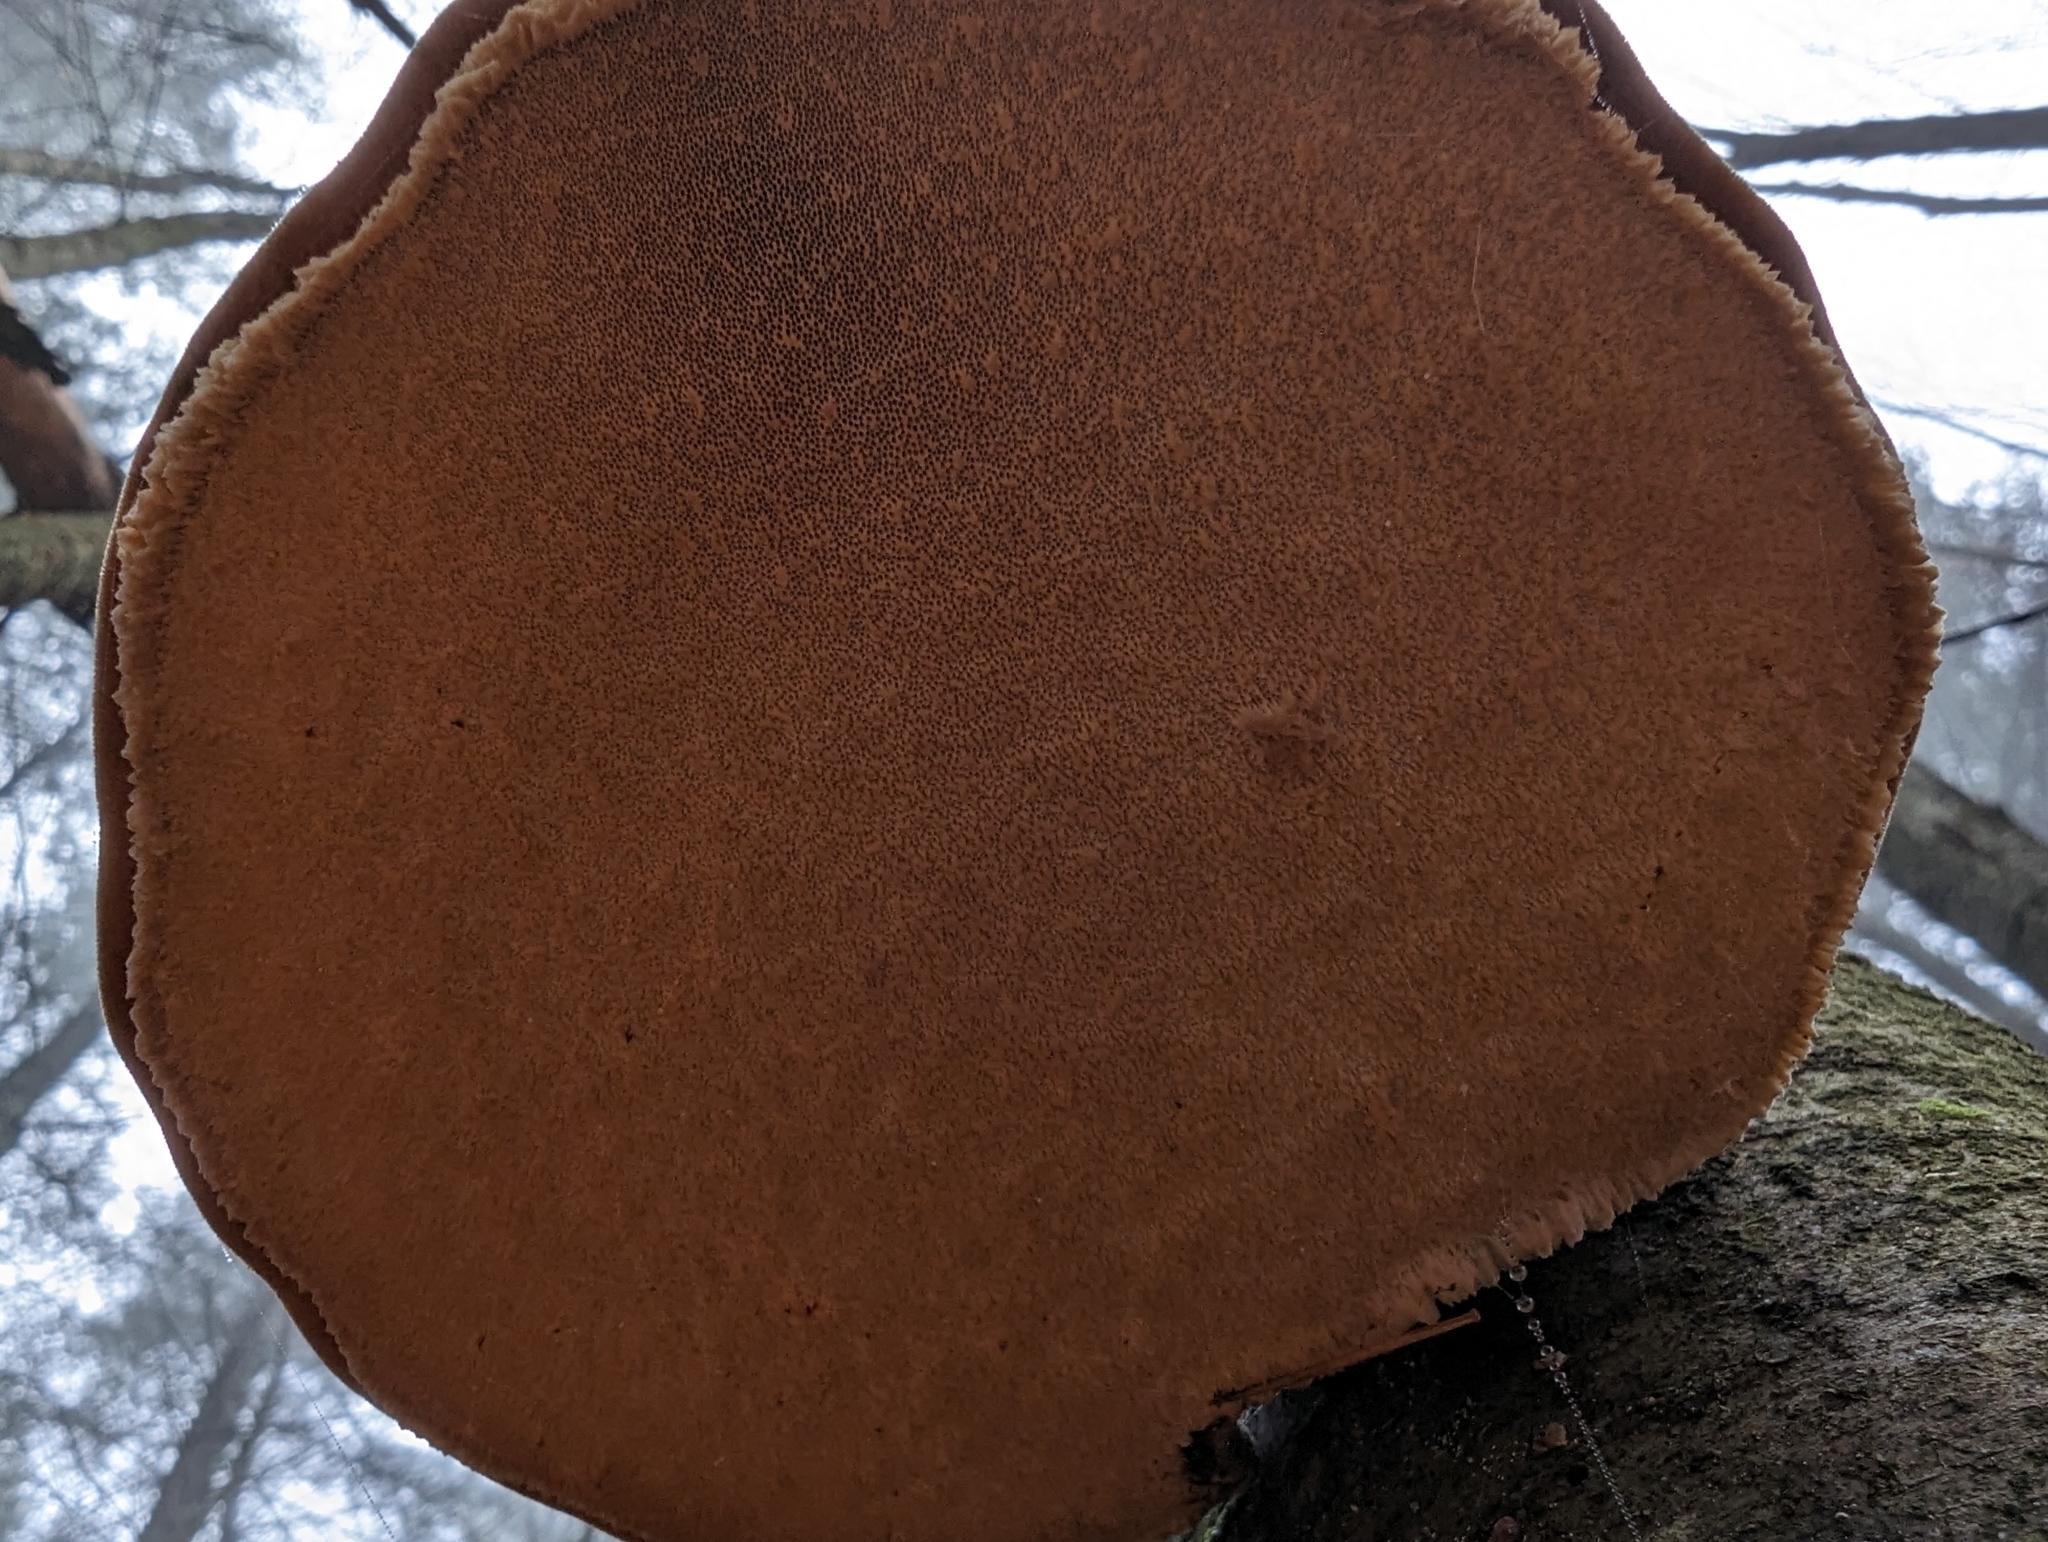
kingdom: Fungi
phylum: Basidiomycota
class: Agaricomycetes
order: Polyporales
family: Fomitopsidaceae
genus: Fomitopsis
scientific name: Fomitopsis betulina
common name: Birch polypore
